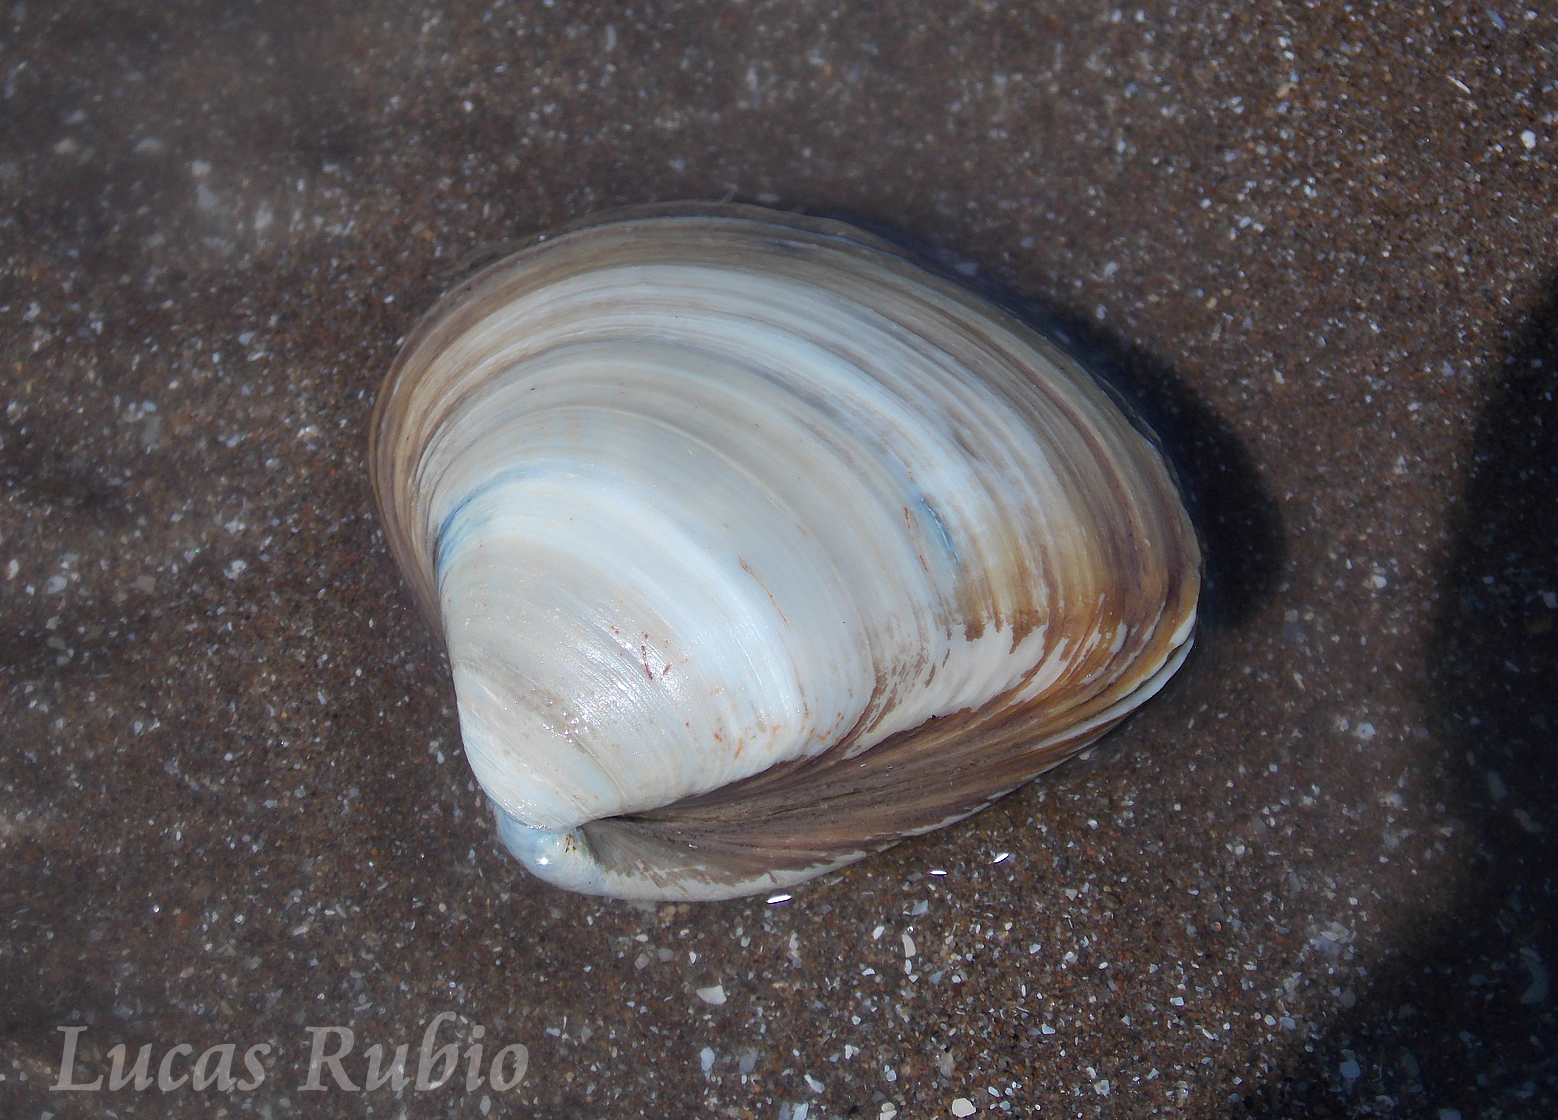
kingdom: Animalia
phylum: Mollusca
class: Bivalvia
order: Venerida
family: Mactridae
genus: Mactra
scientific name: Mactra isabelleana
